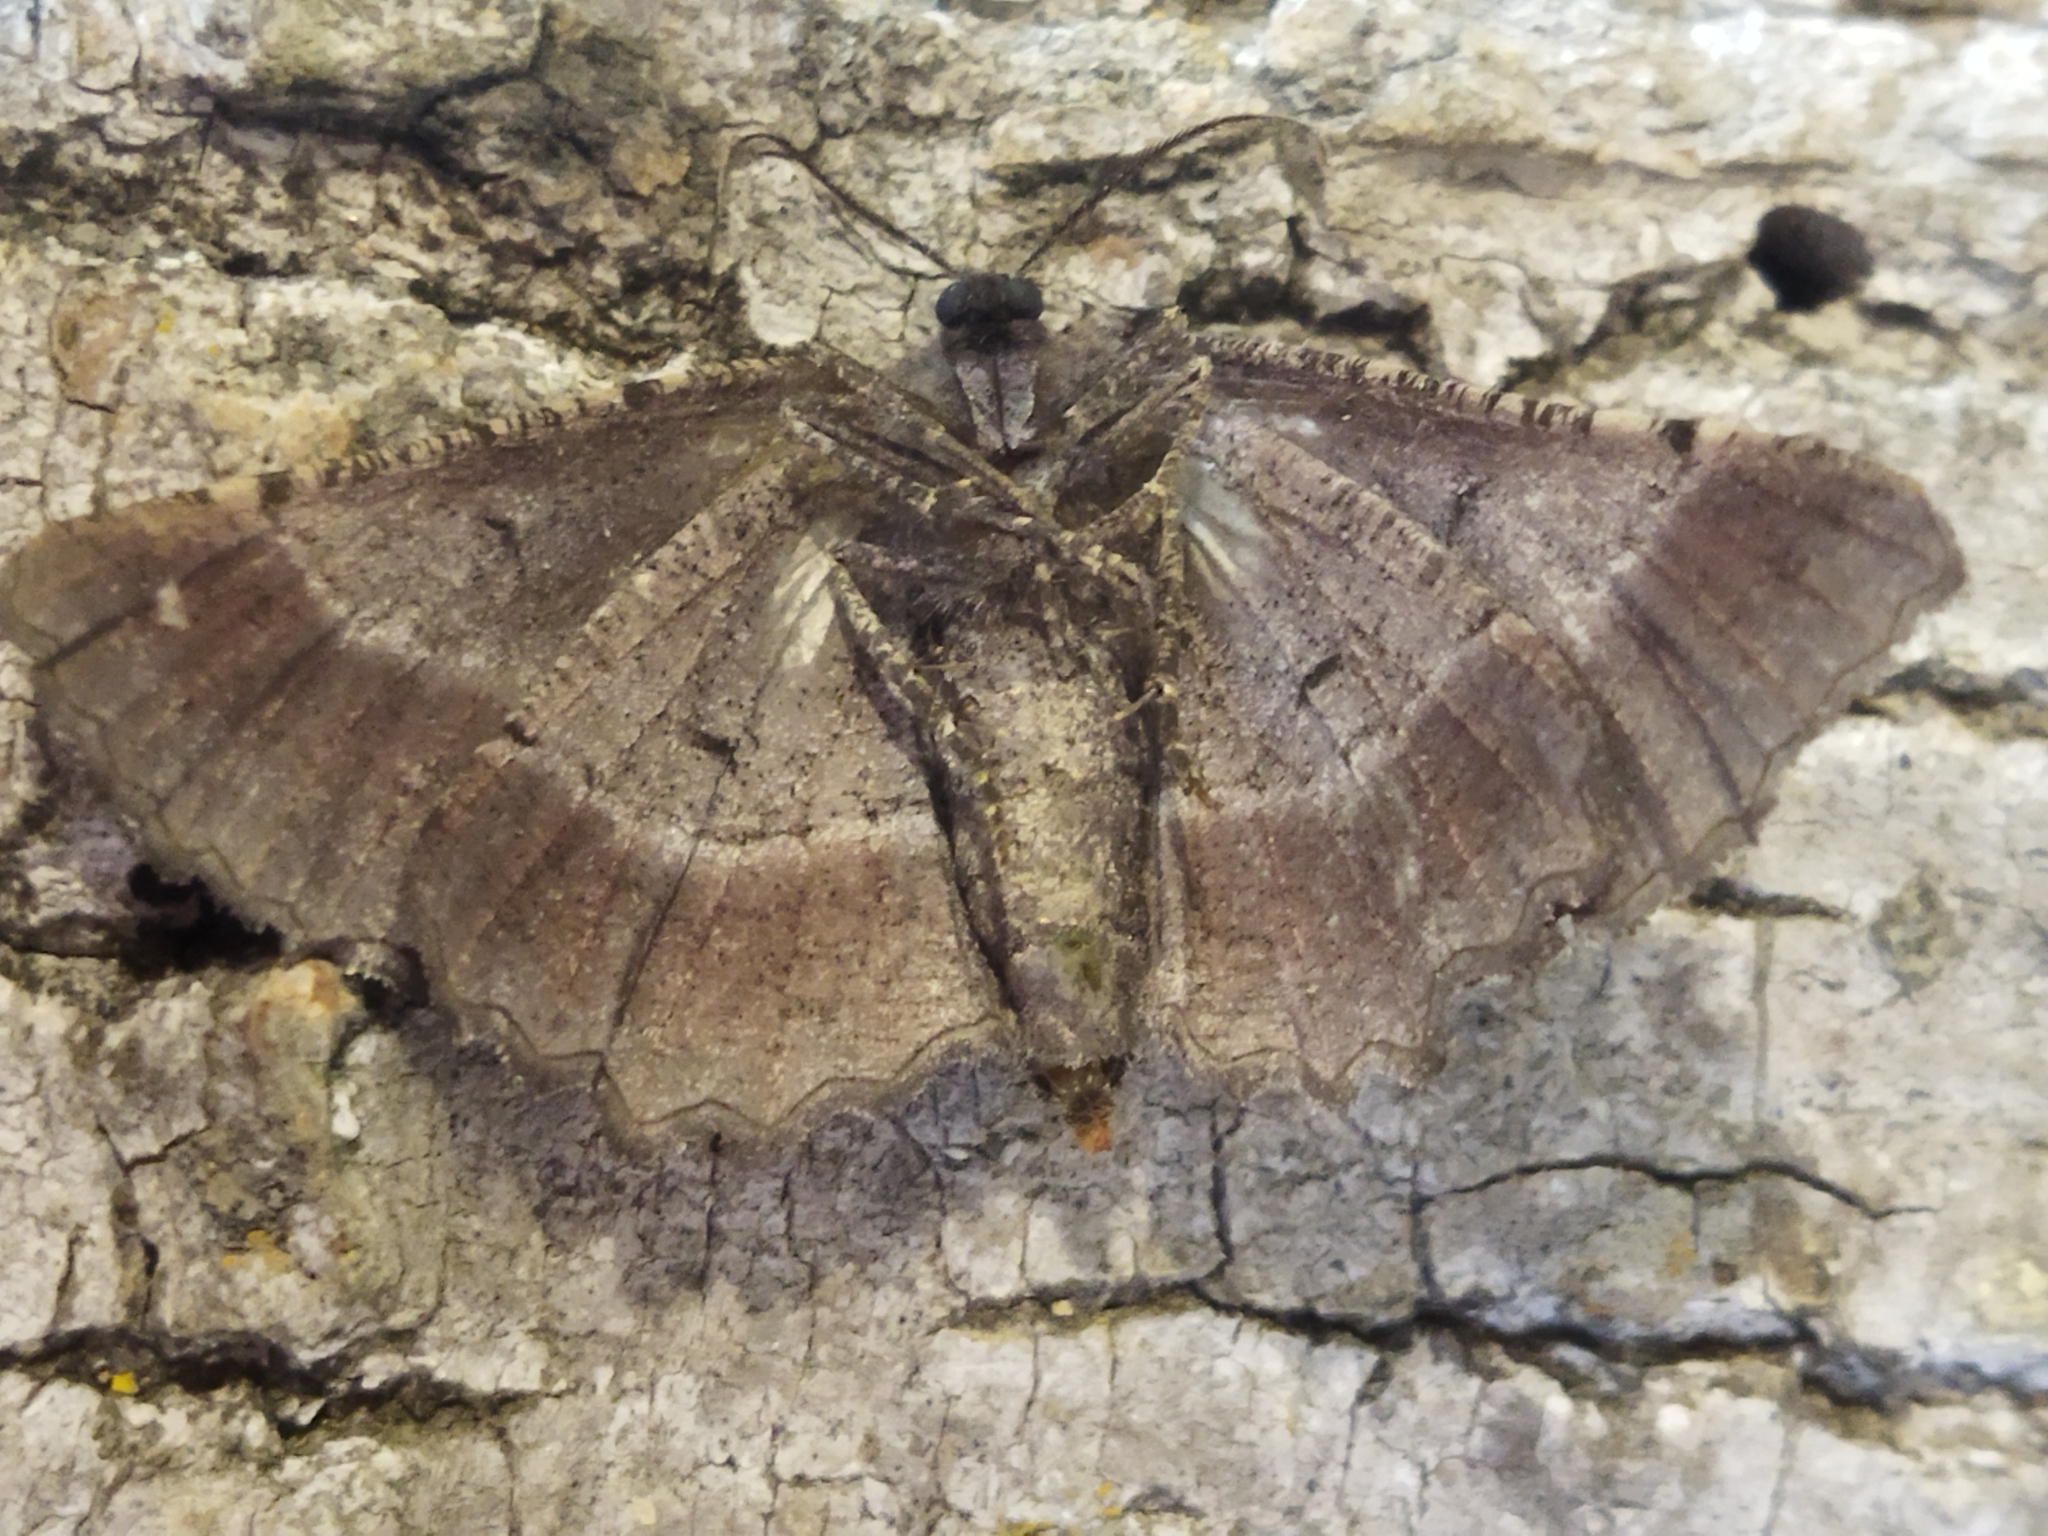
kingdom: Animalia
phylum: Arthropoda
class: Insecta
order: Lepidoptera
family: Geometridae
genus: Nychiodes
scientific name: Nychiodes waltheri
